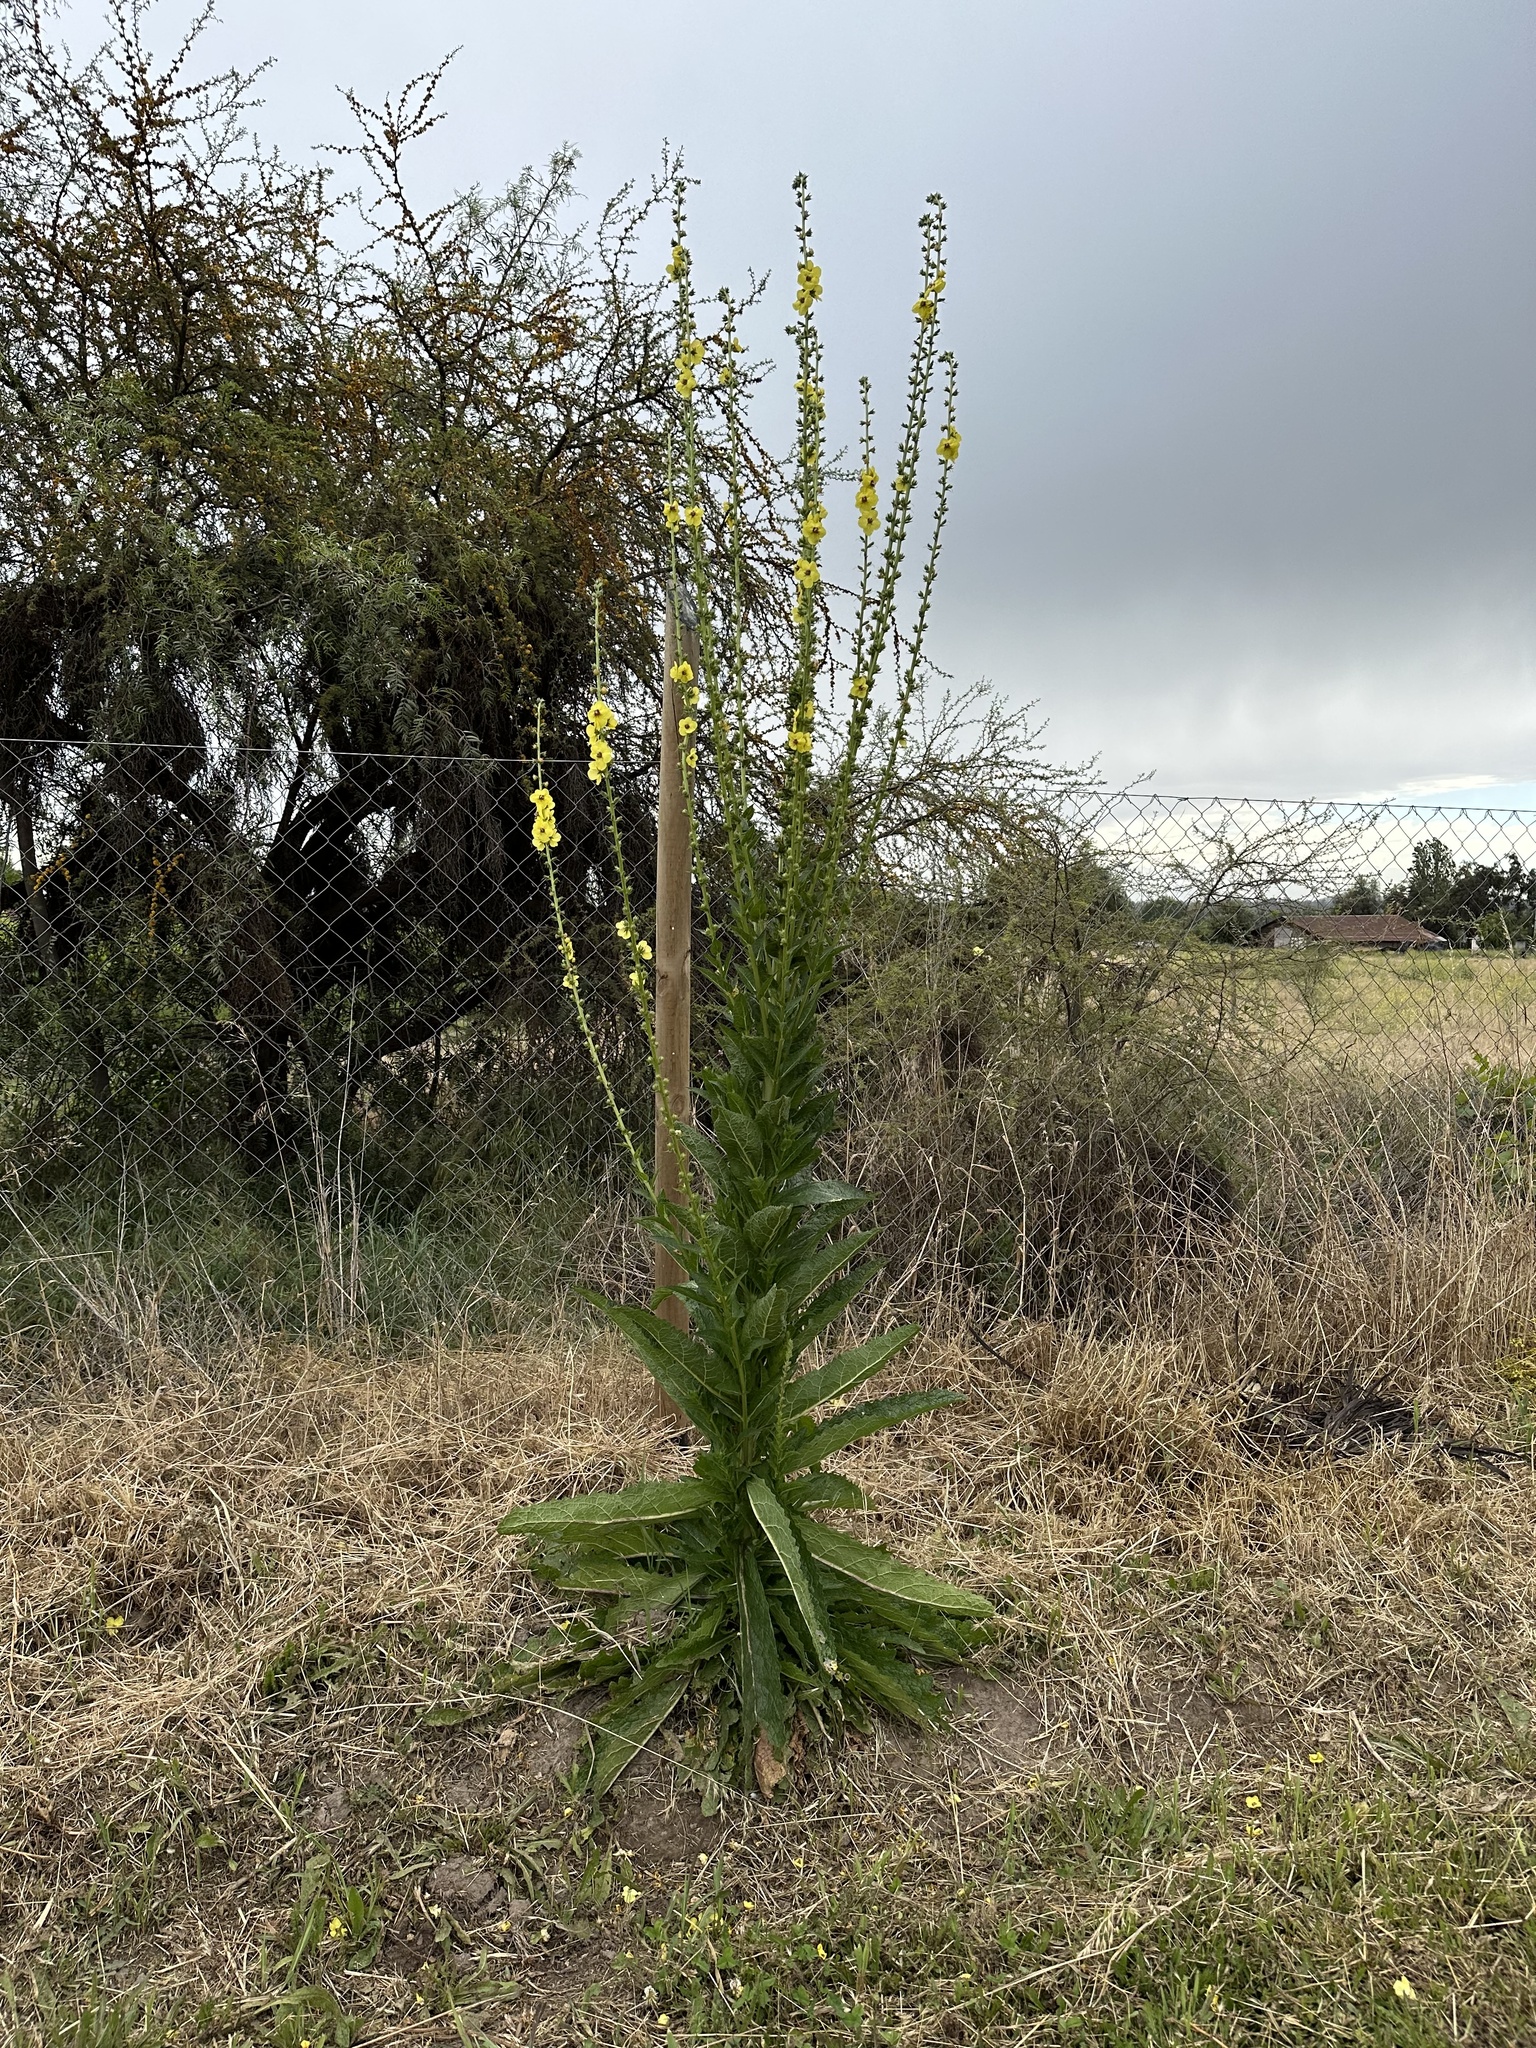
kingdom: Plantae
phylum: Tracheophyta
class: Magnoliopsida
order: Lamiales
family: Scrophulariaceae
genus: Verbascum
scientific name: Verbascum virgatum
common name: Twiggy mullein
